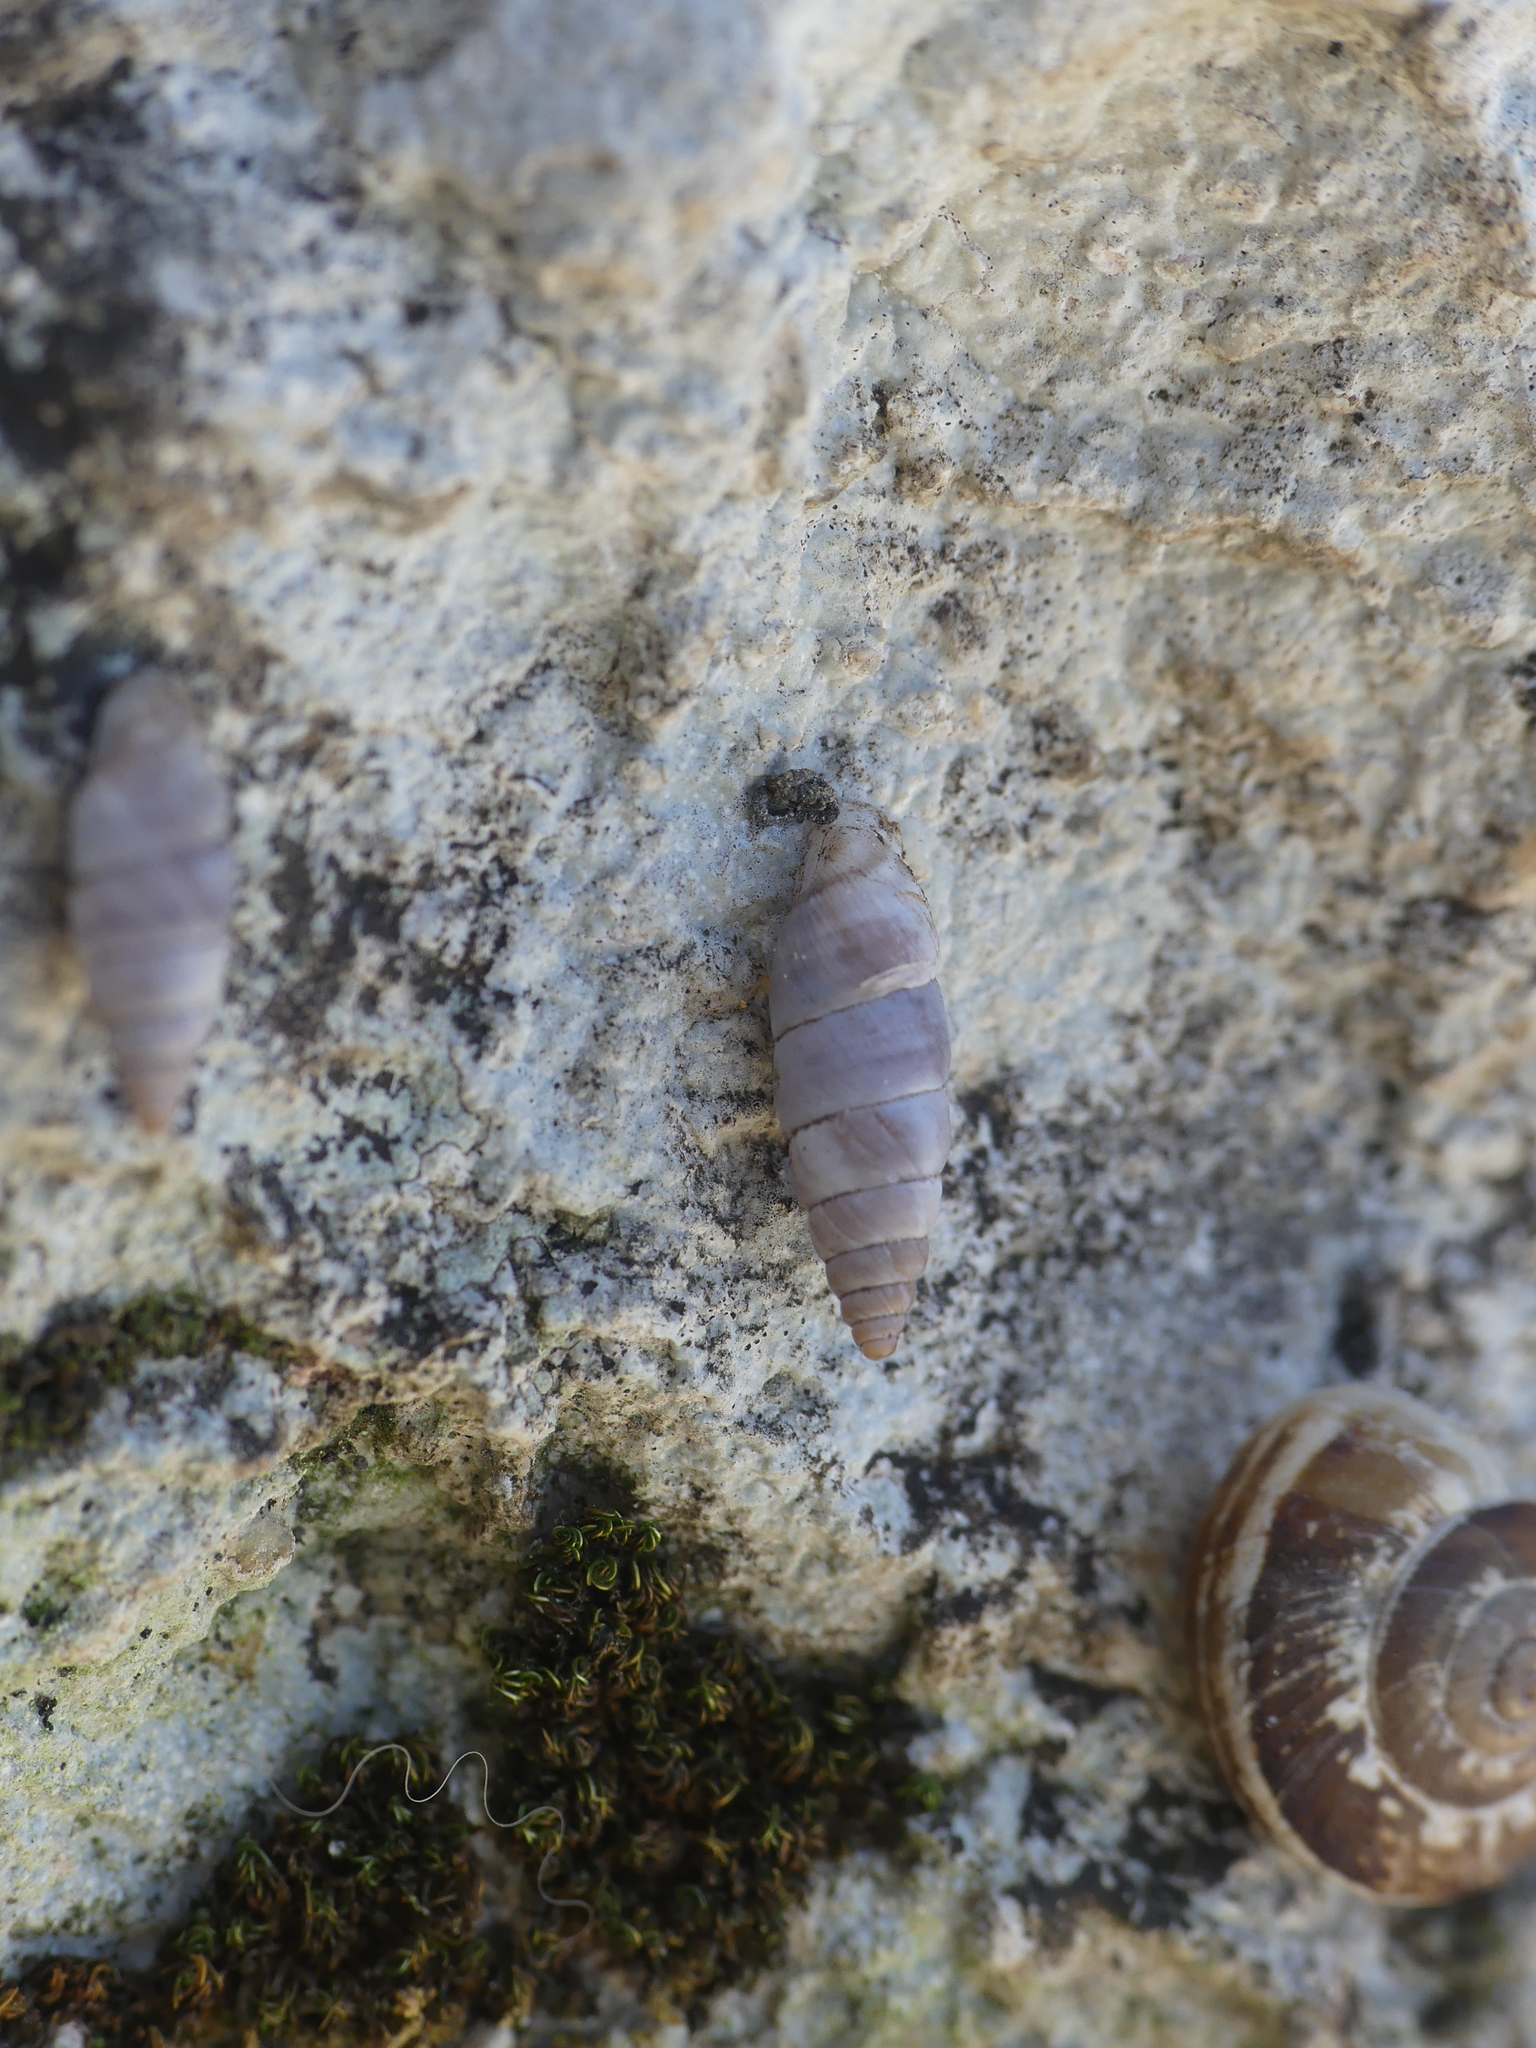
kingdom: Animalia
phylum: Mollusca
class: Gastropoda
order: Stylommatophora
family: Chondrinidae
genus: Solatopupa
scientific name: Solatopupa similis
